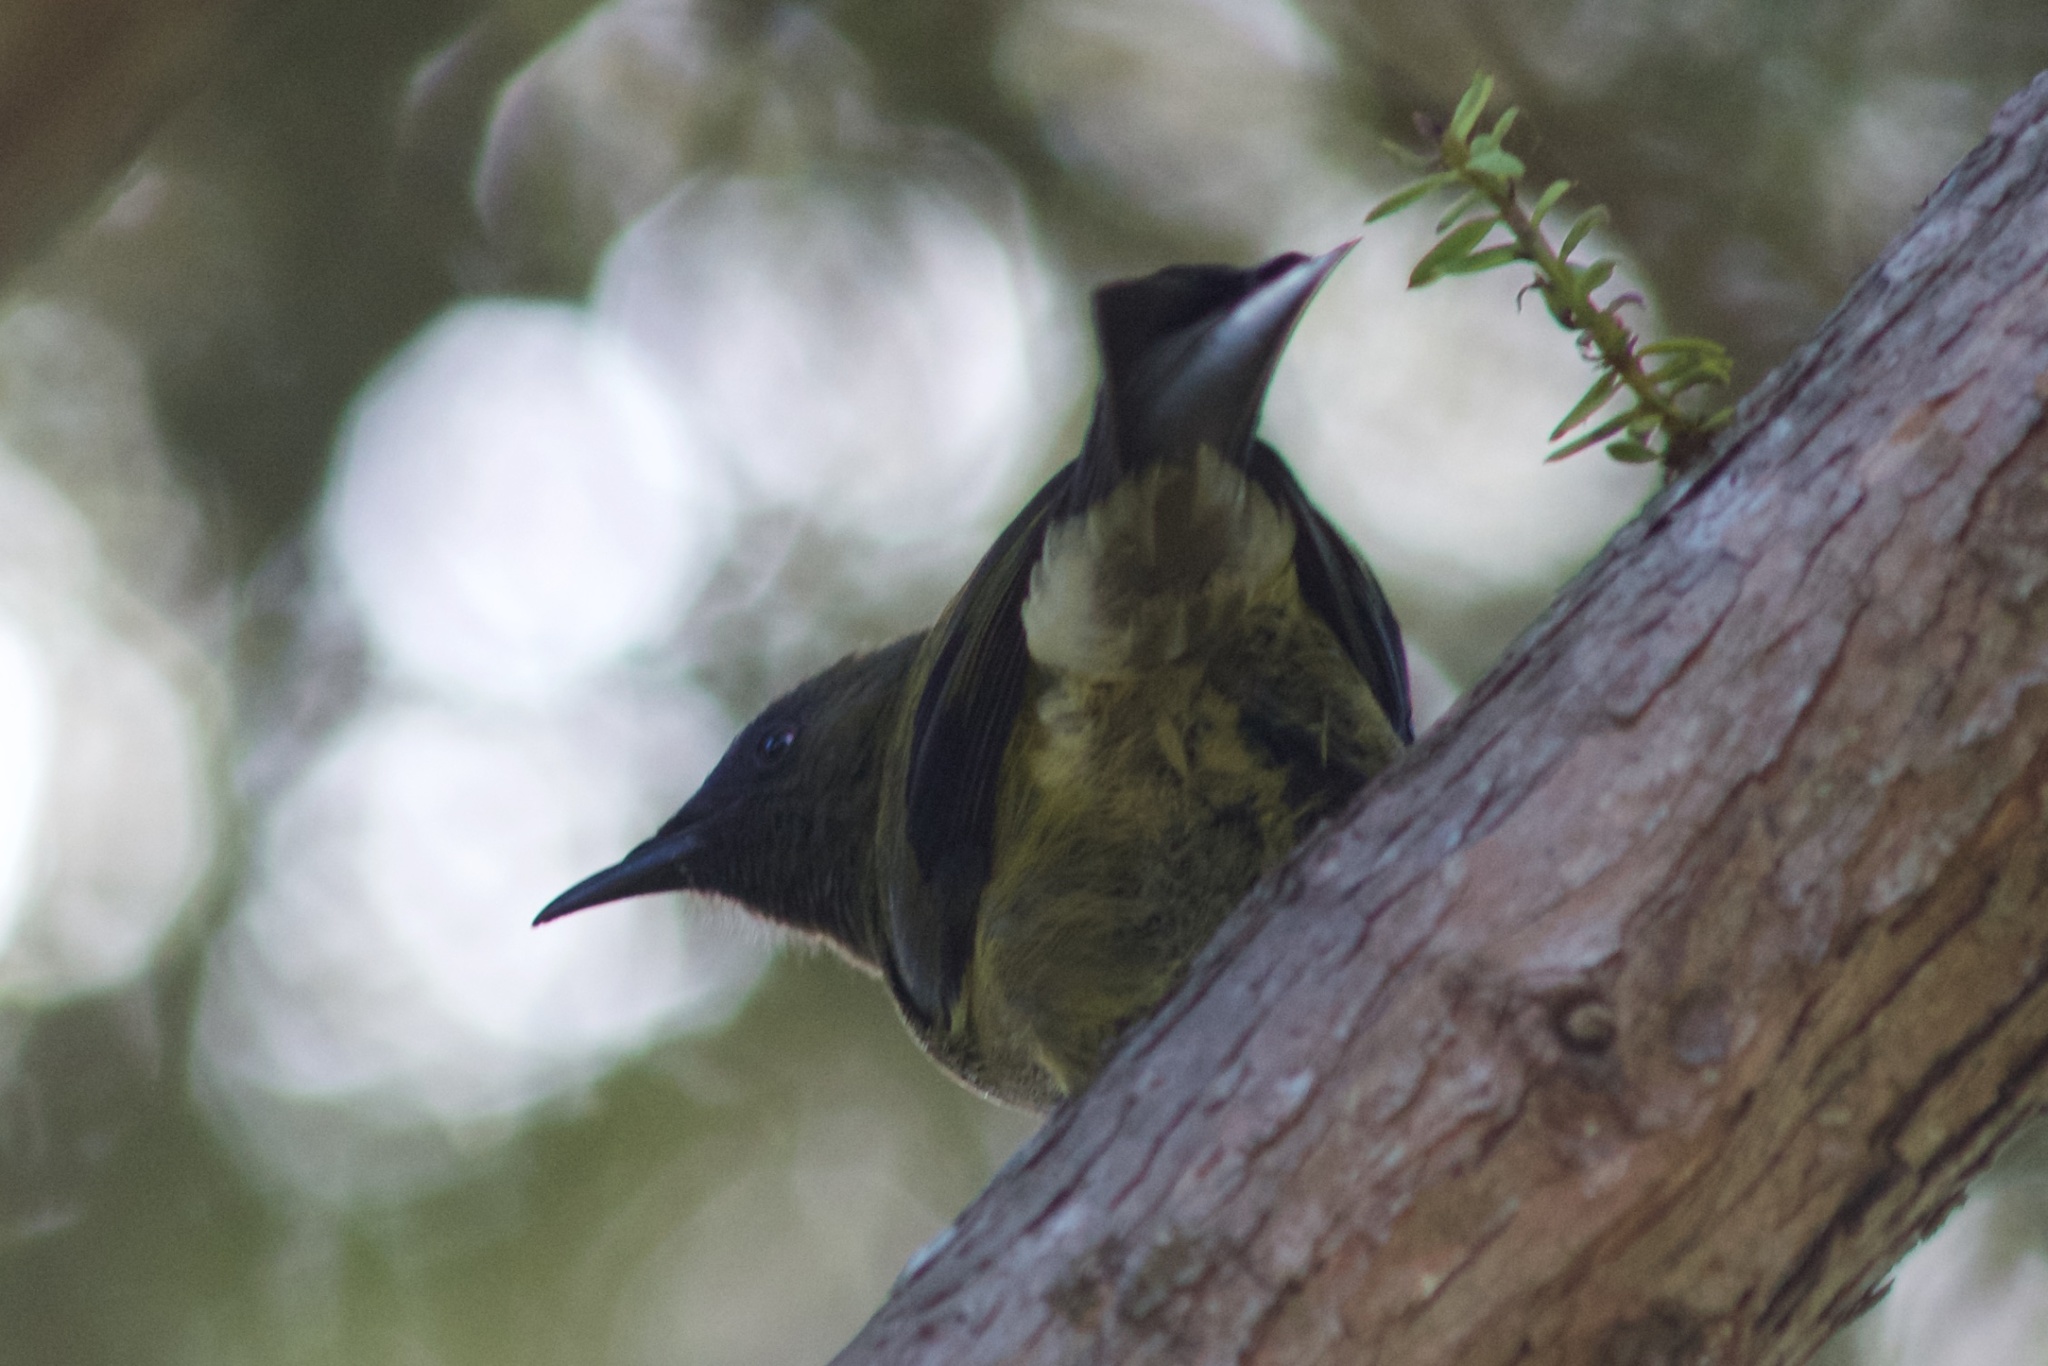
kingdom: Animalia
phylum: Chordata
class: Aves
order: Passeriformes
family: Meliphagidae
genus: Anthornis
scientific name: Anthornis melanura
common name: New zealand bellbird
